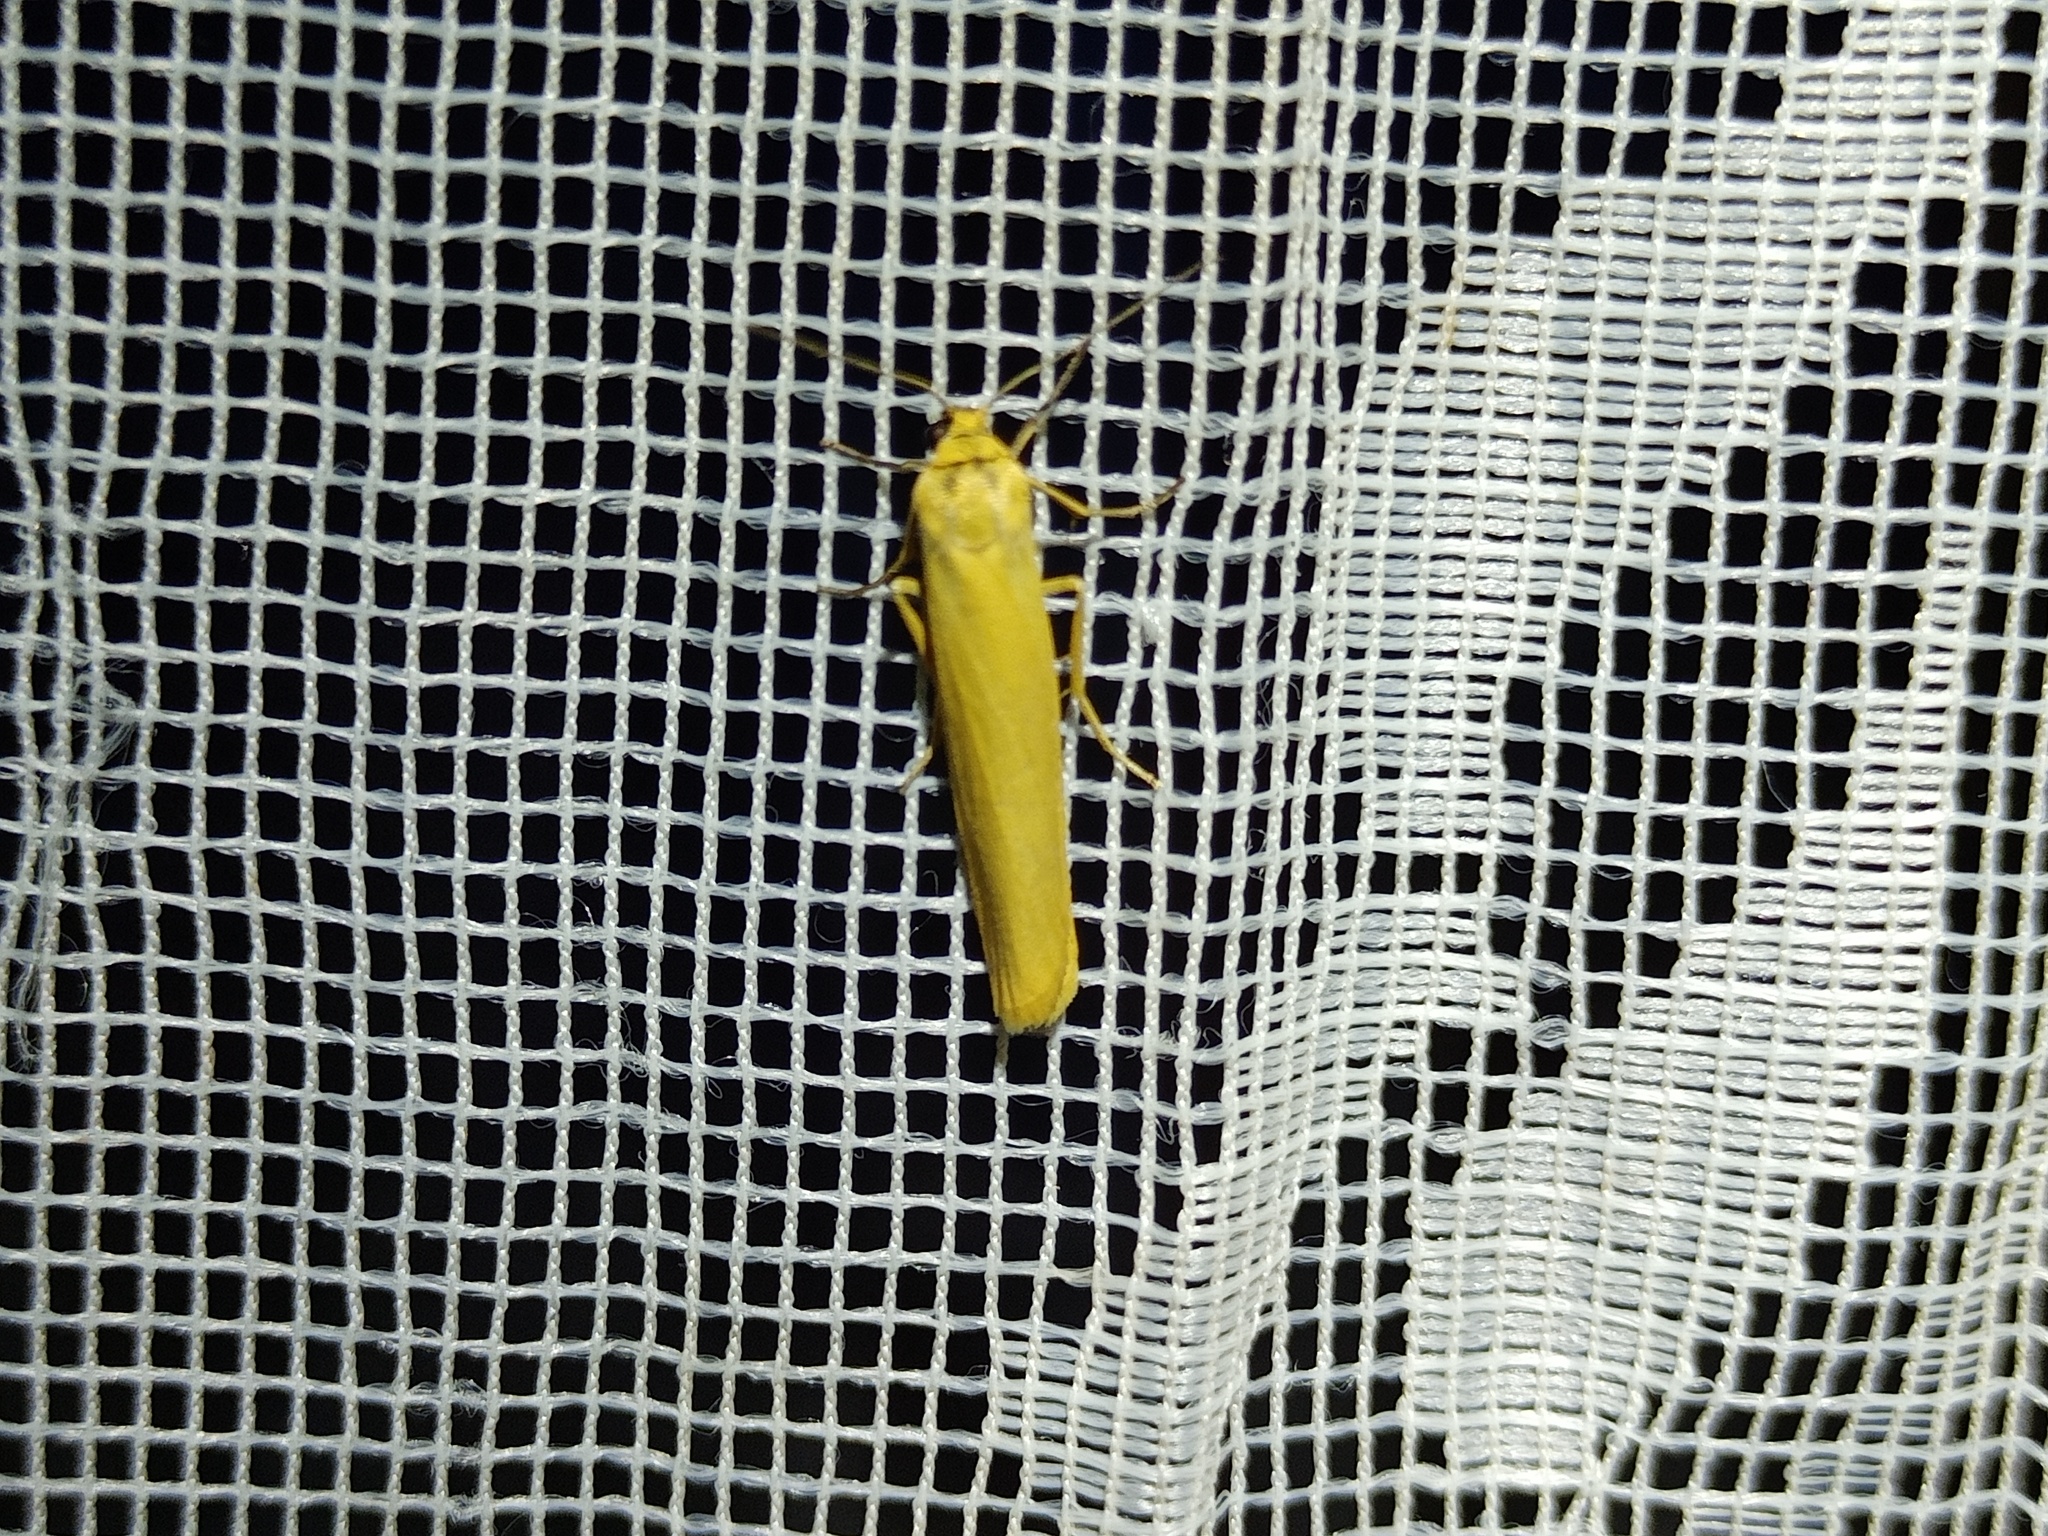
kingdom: Animalia
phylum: Arthropoda
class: Insecta
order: Lepidoptera
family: Erebidae
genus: Indalia
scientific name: Indalia lutarella
